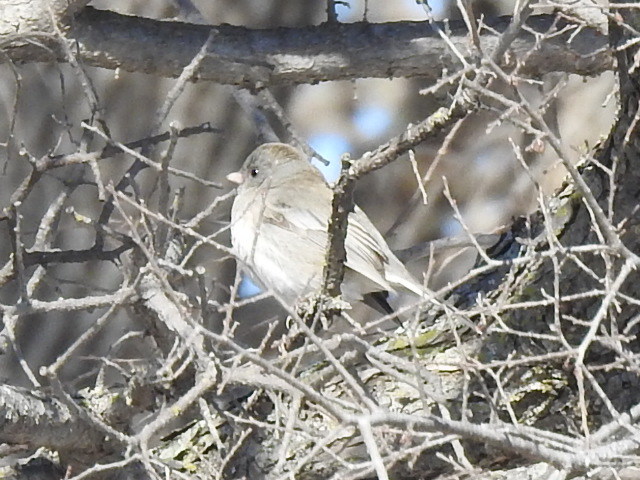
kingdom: Animalia
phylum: Chordata
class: Aves
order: Passeriformes
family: Passerellidae
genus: Junco
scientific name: Junco hyemalis
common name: Dark-eyed junco
